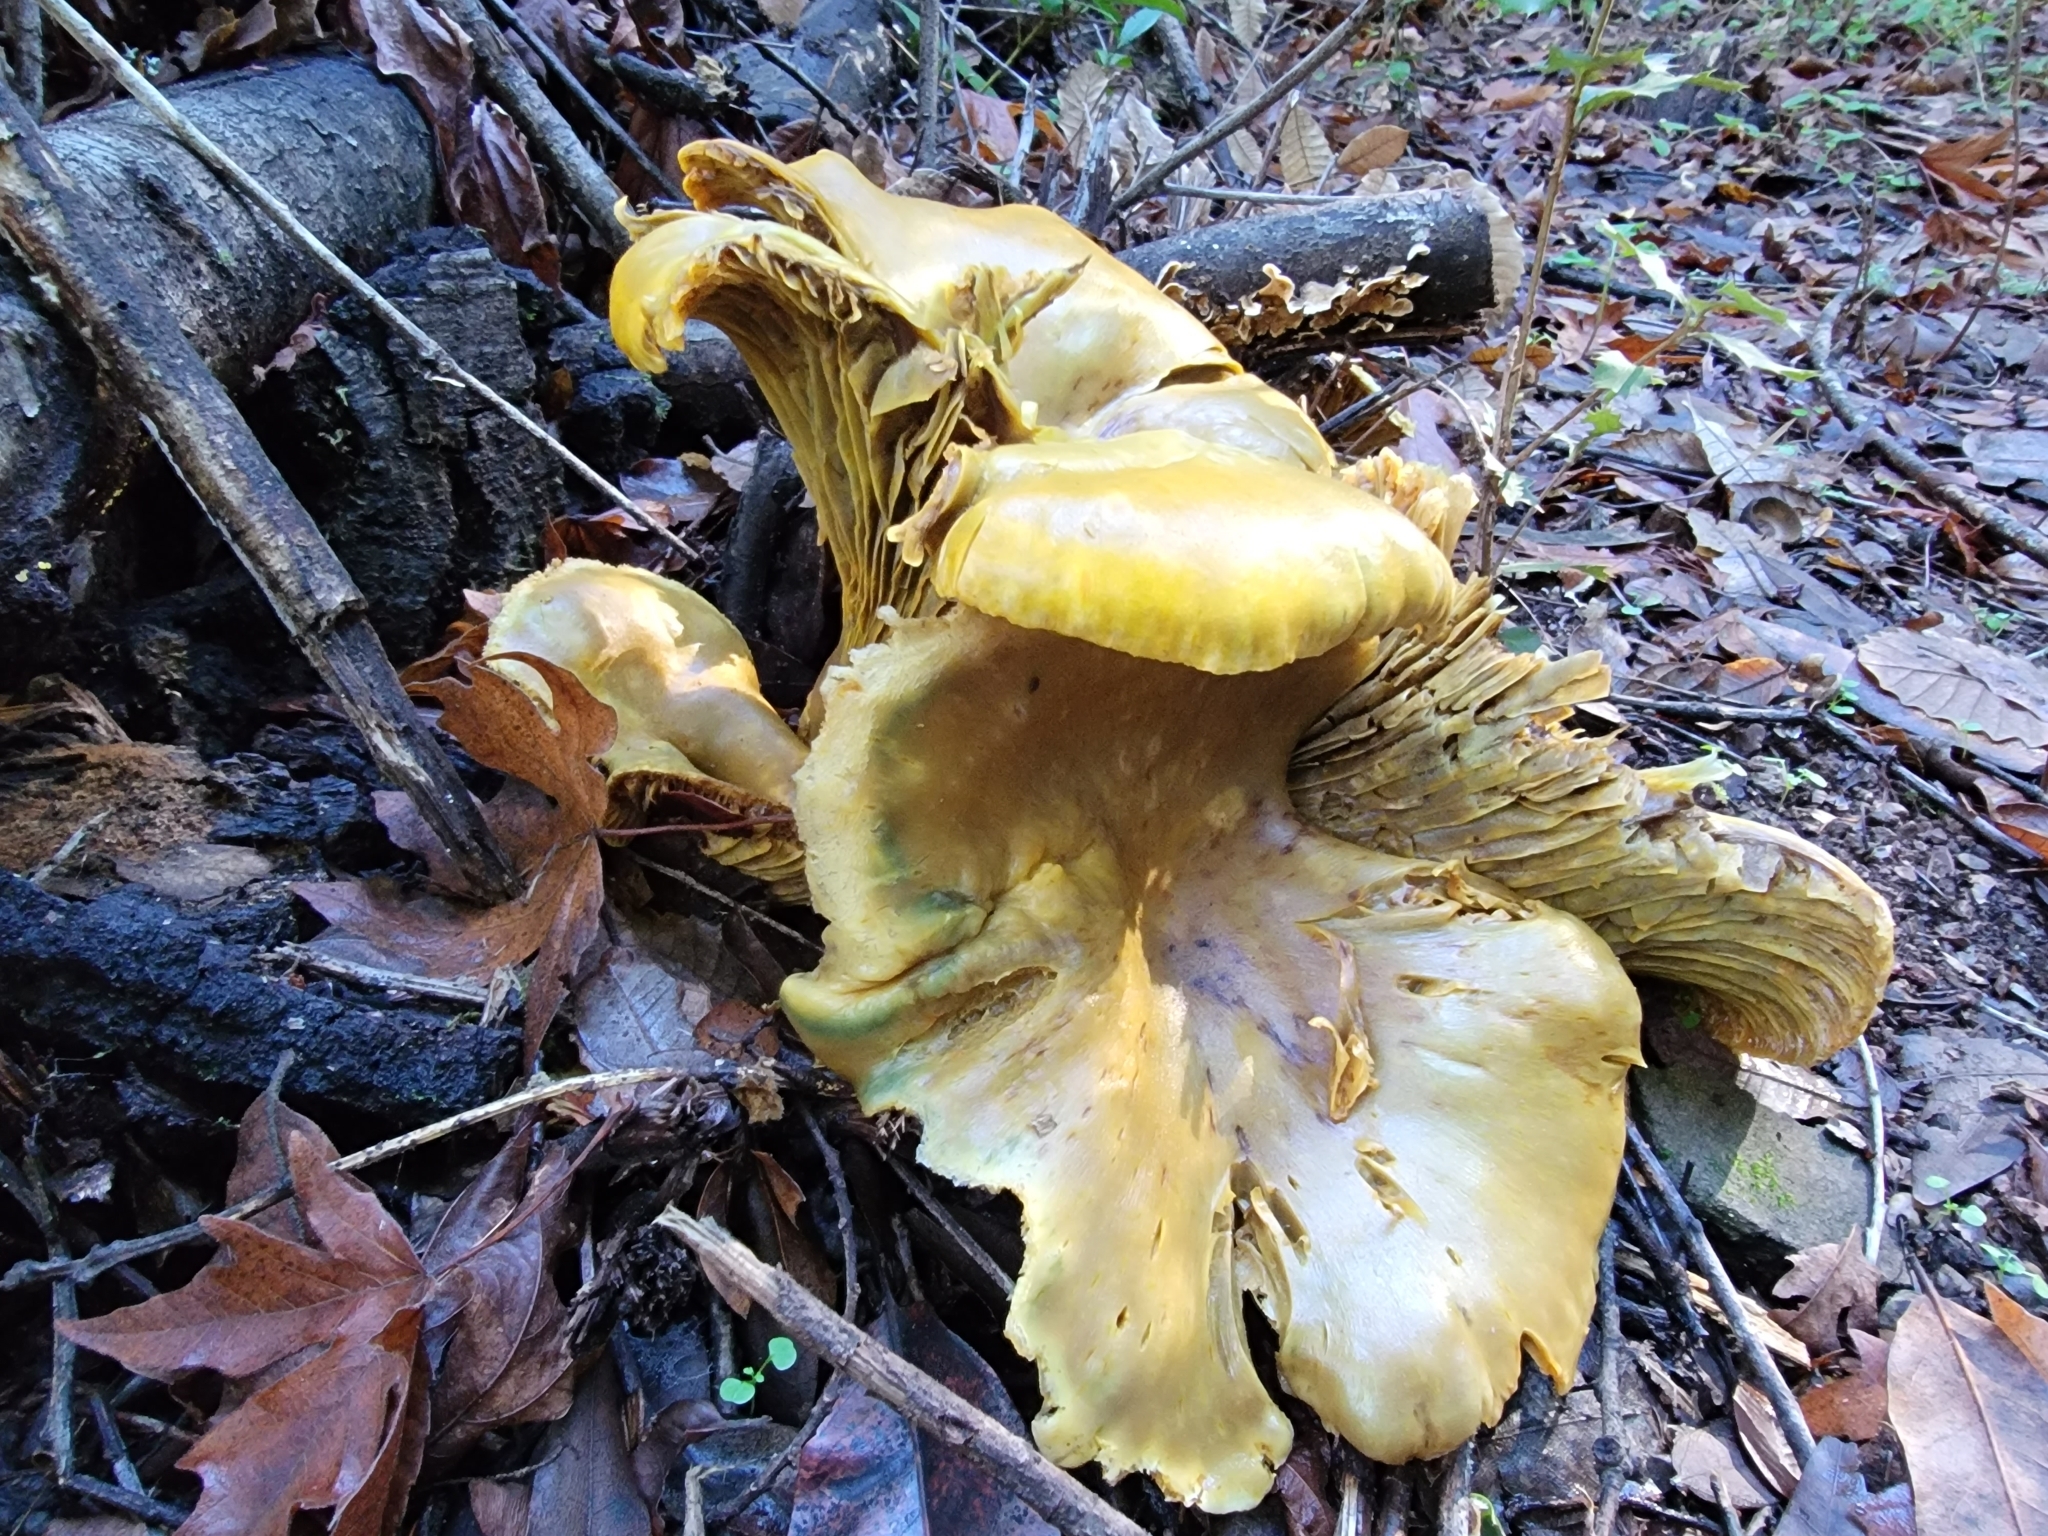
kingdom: Fungi
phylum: Basidiomycota
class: Agaricomycetes
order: Agaricales
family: Omphalotaceae
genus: Omphalotus
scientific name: Omphalotus olivascens
